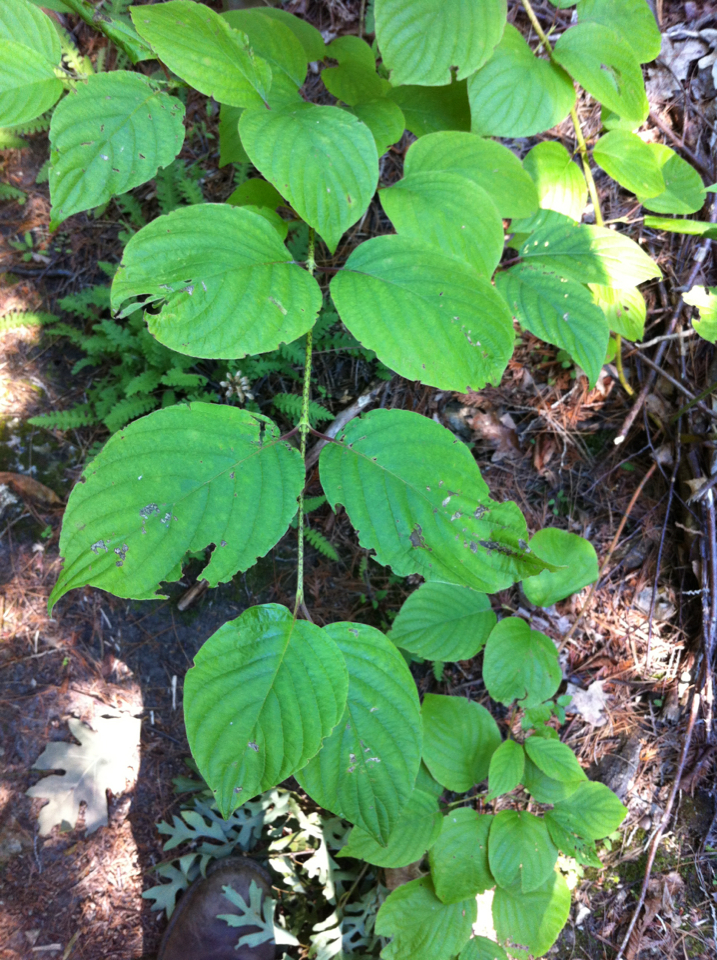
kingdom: Plantae
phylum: Tracheophyta
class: Magnoliopsida
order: Cornales
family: Cornaceae
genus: Cornus
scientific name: Cornus rugosa
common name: Round-leaf dogwood
